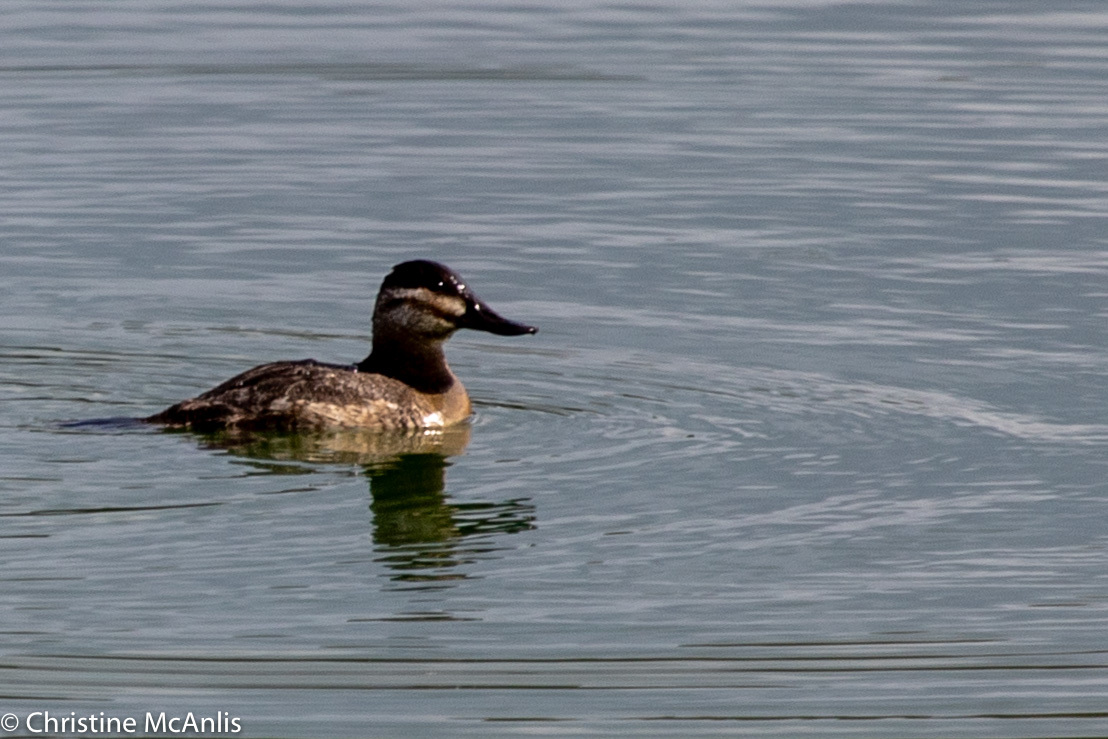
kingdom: Animalia
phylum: Chordata
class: Aves
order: Anseriformes
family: Anatidae
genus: Oxyura
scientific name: Oxyura jamaicensis
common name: Ruddy duck
